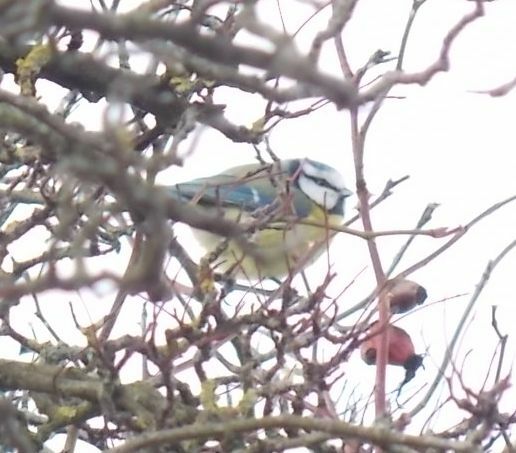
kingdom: Animalia
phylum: Chordata
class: Aves
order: Passeriformes
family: Paridae
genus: Cyanistes
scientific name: Cyanistes caeruleus
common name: Eurasian blue tit
